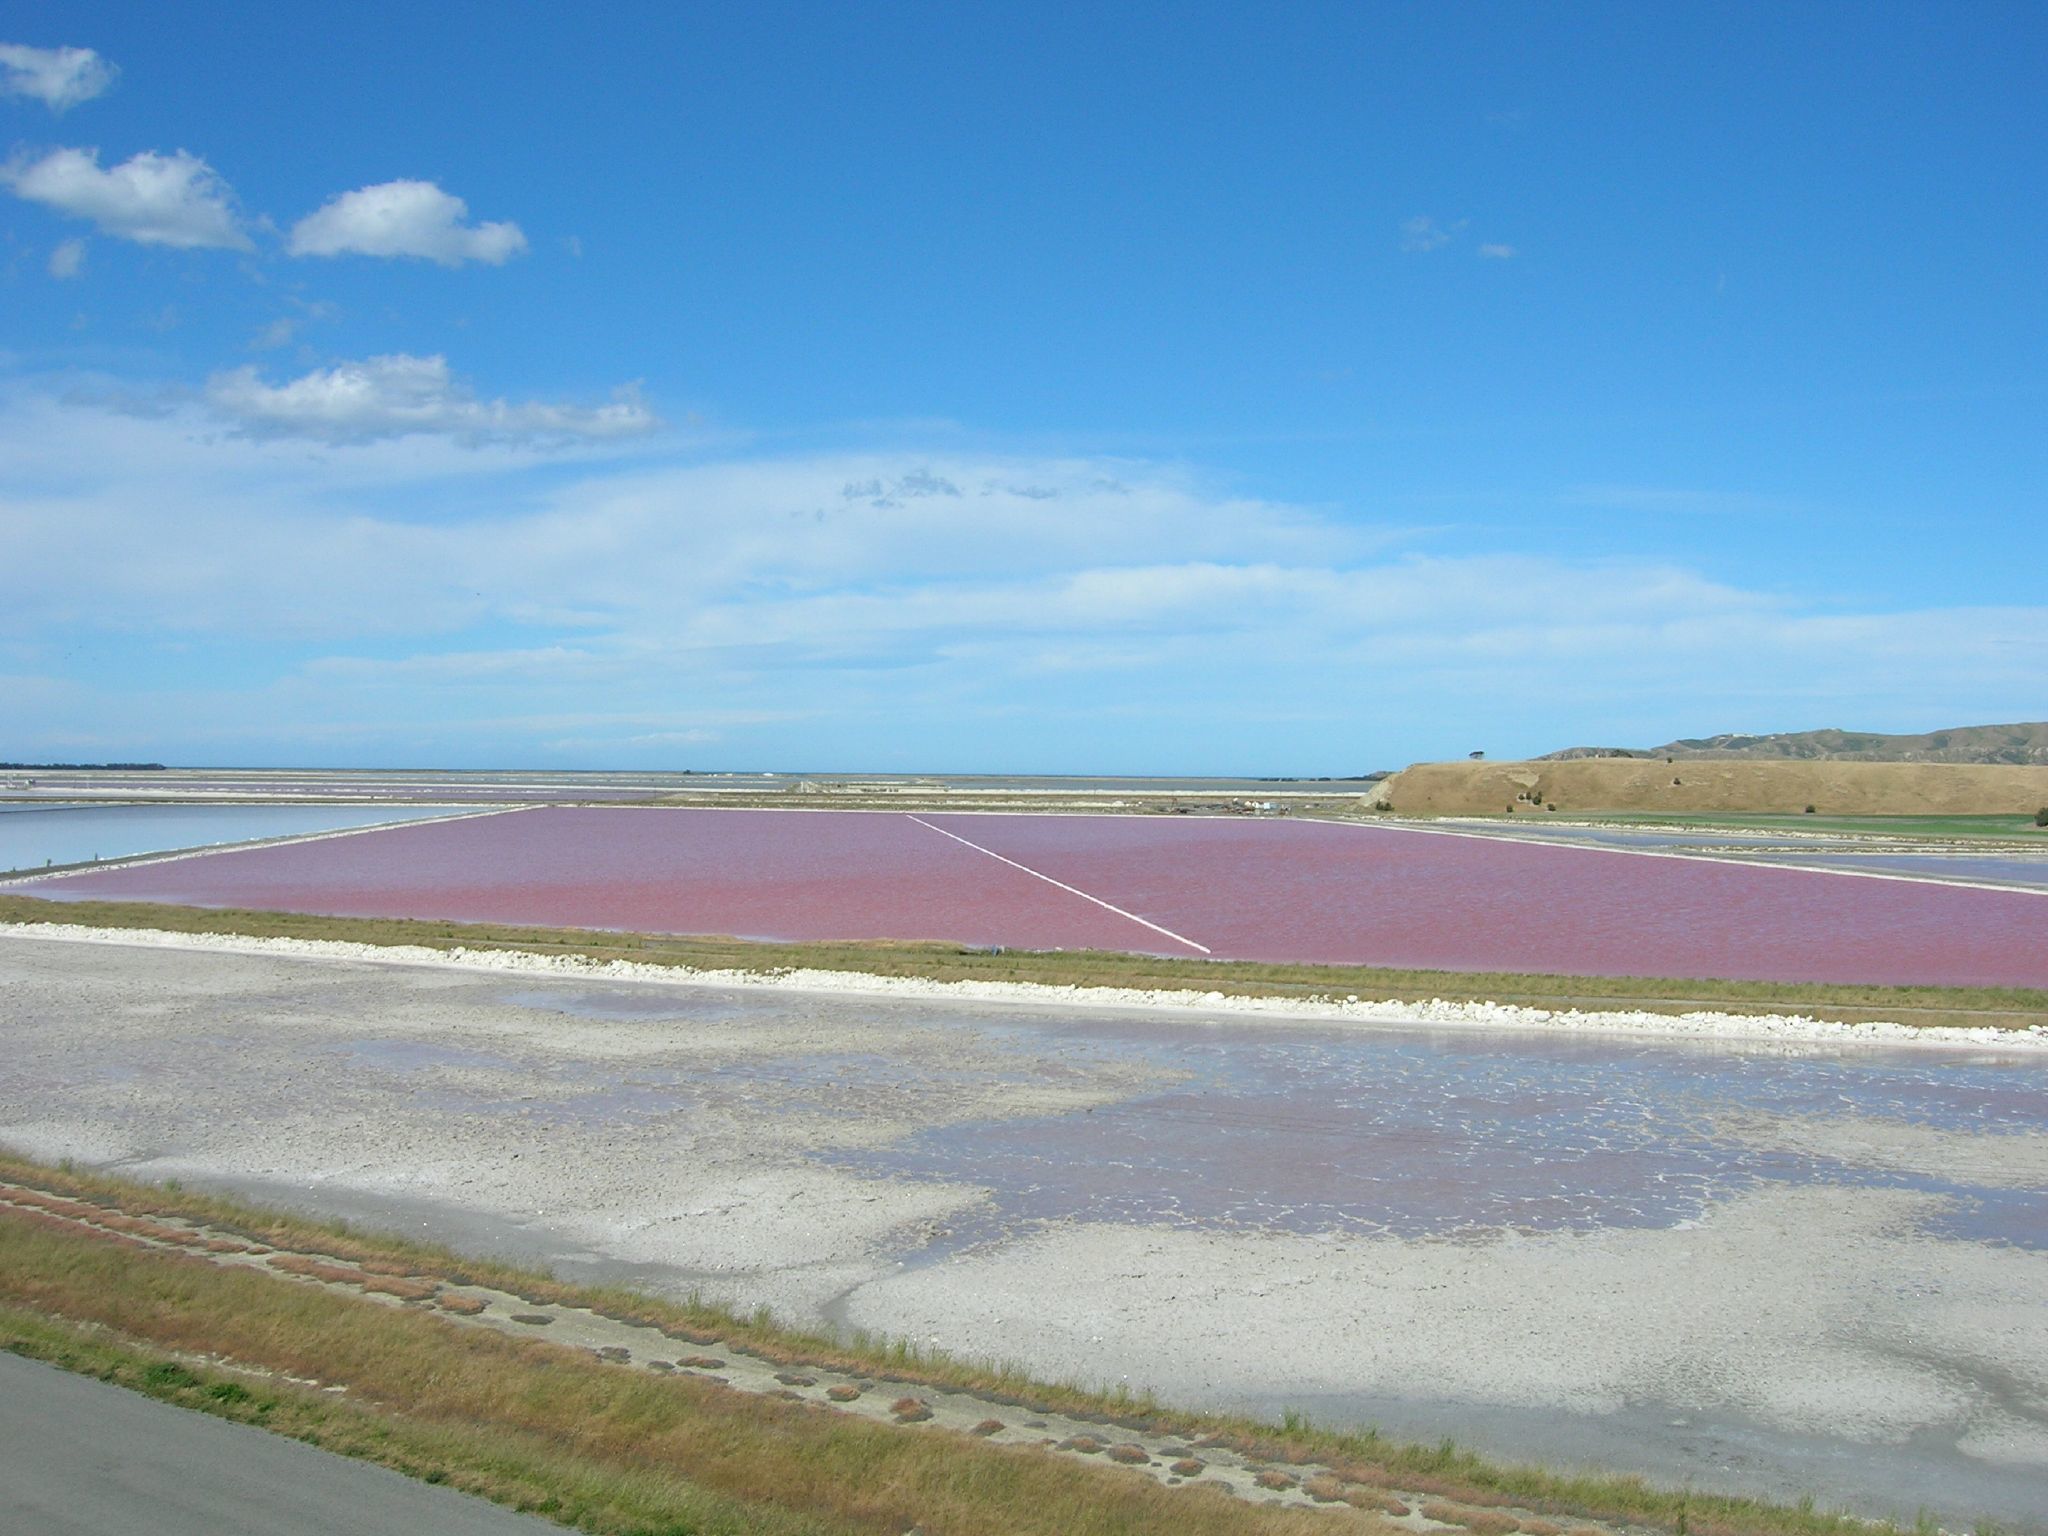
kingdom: Plantae
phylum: Chlorophyta
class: Chlorophyceae
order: Volvocales
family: Dunaliellaceae
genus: Dunaliella
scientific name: Dunaliella salina
